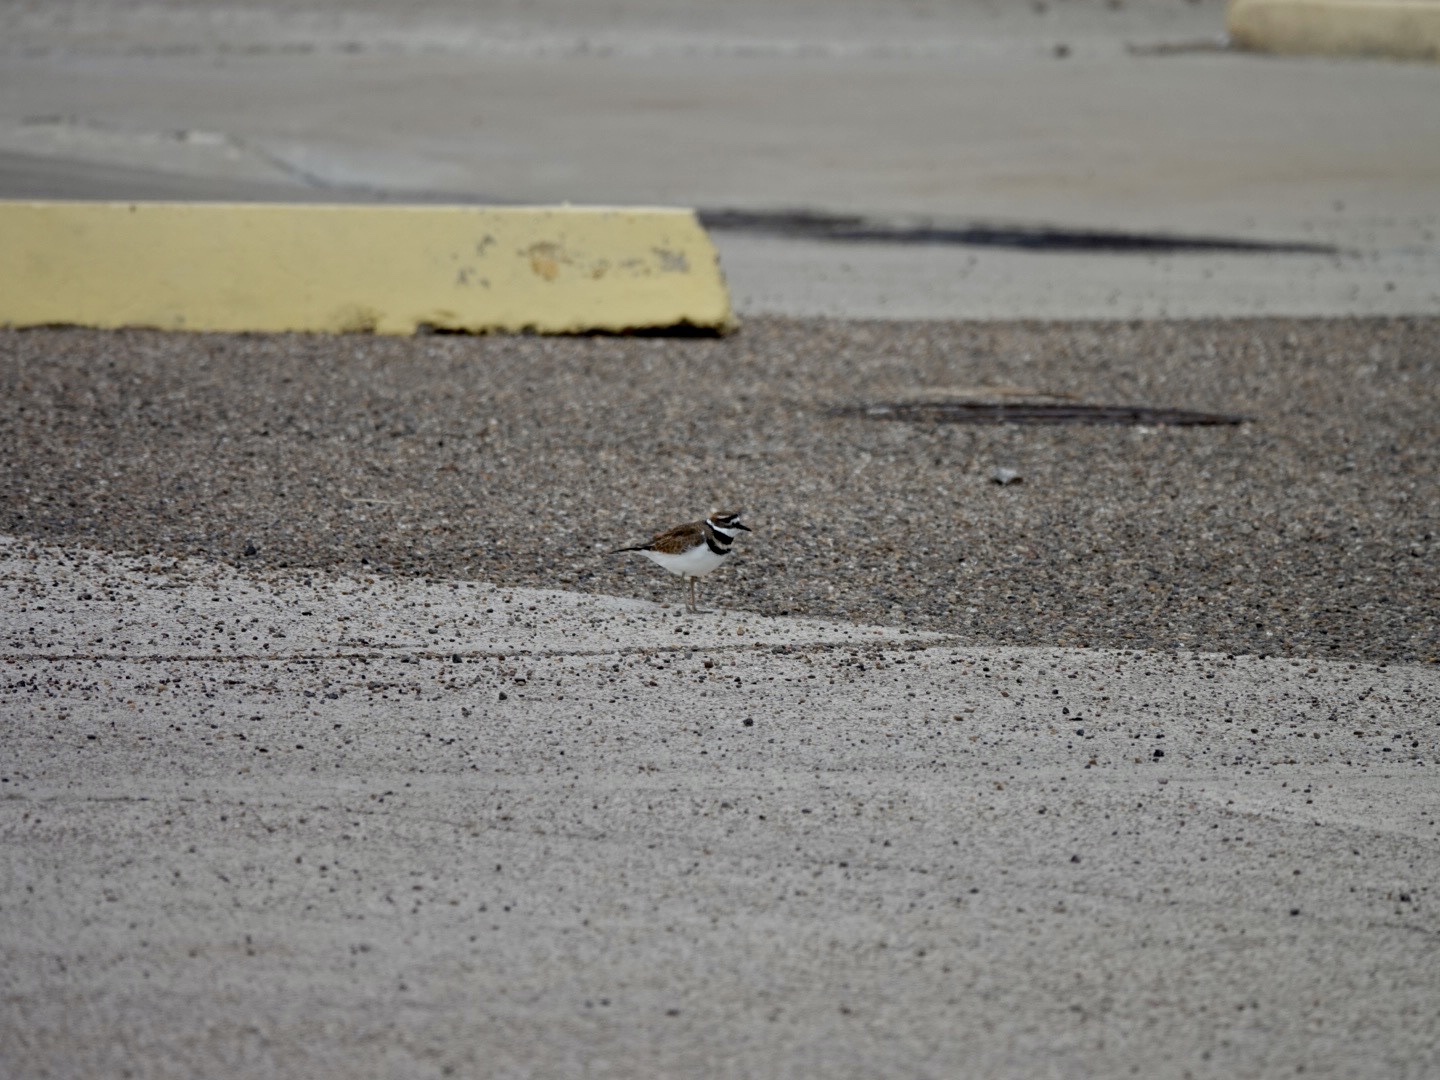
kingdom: Animalia
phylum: Chordata
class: Aves
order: Charadriiformes
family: Charadriidae
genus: Charadrius
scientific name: Charadrius vociferus
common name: Killdeer
